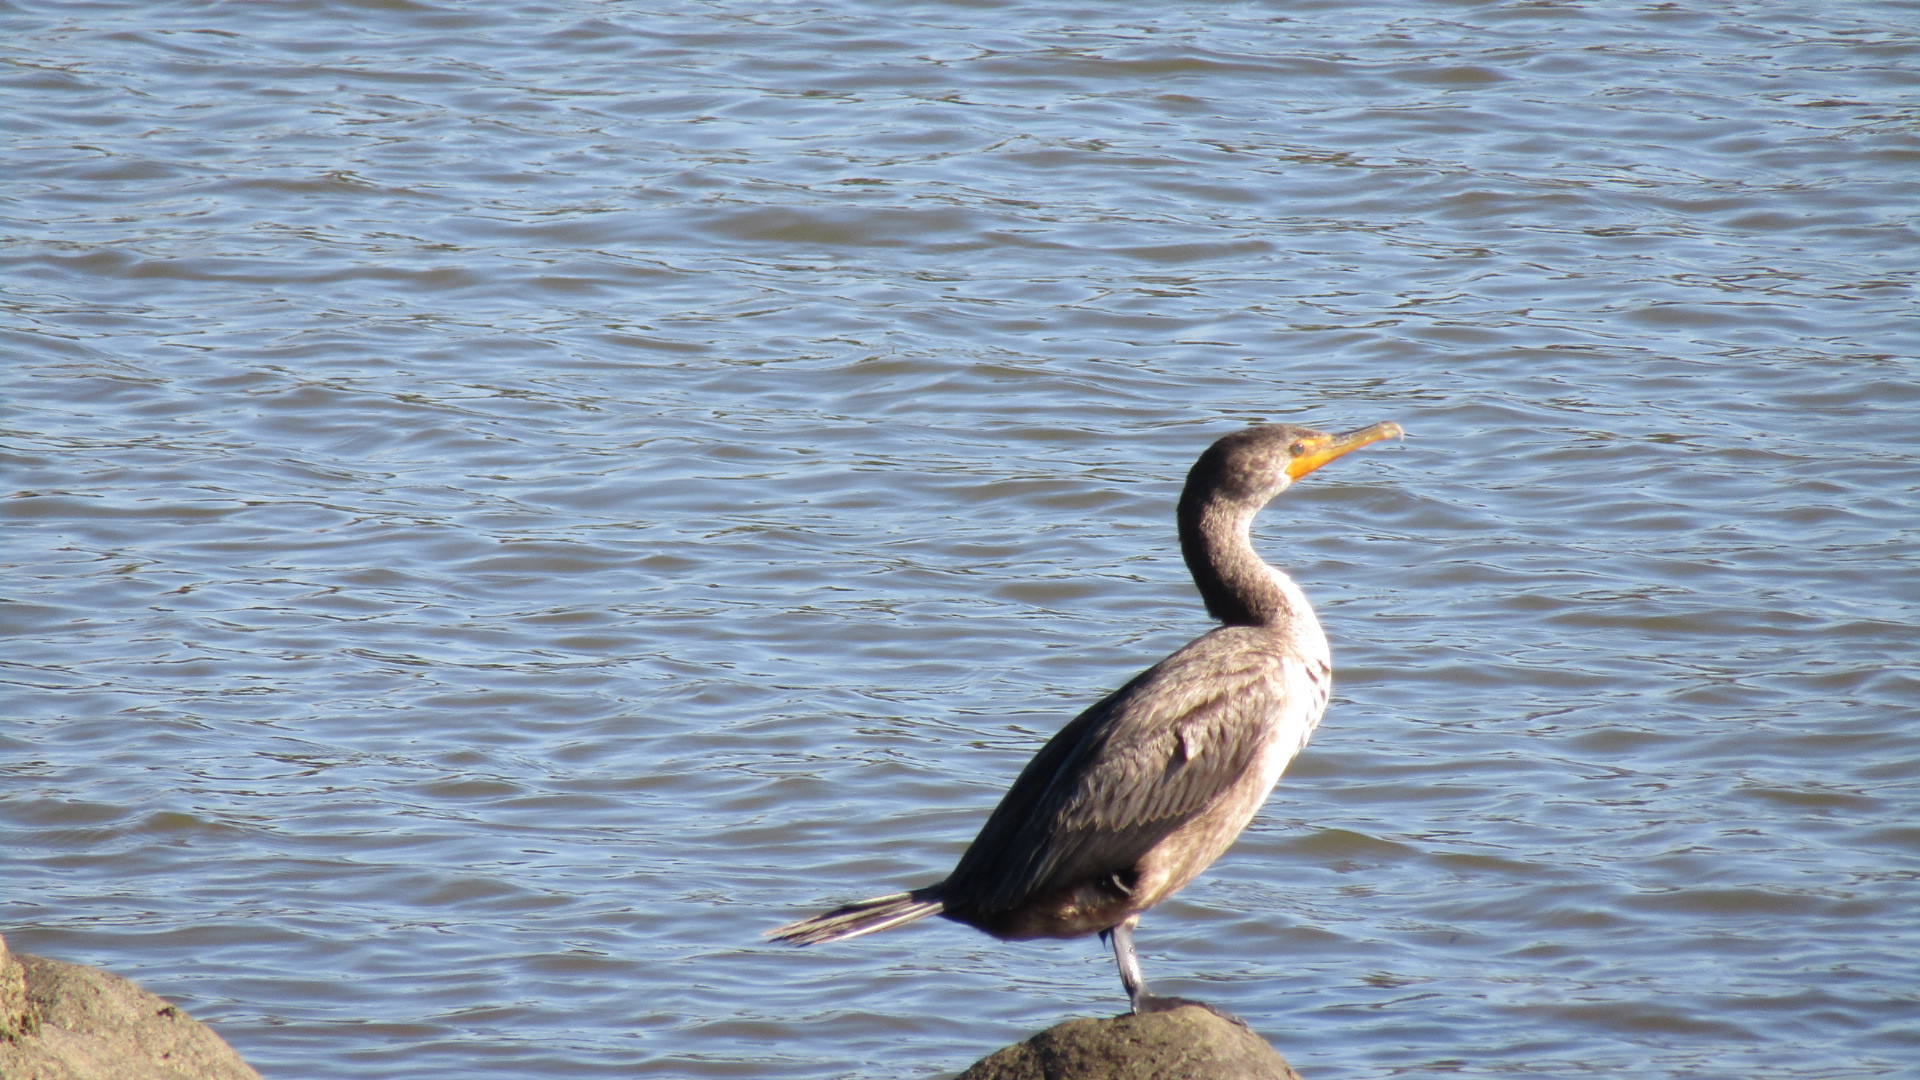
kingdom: Animalia
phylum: Chordata
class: Aves
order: Suliformes
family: Phalacrocoracidae
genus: Phalacrocorax
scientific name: Phalacrocorax auritus
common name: Double-crested cormorant
